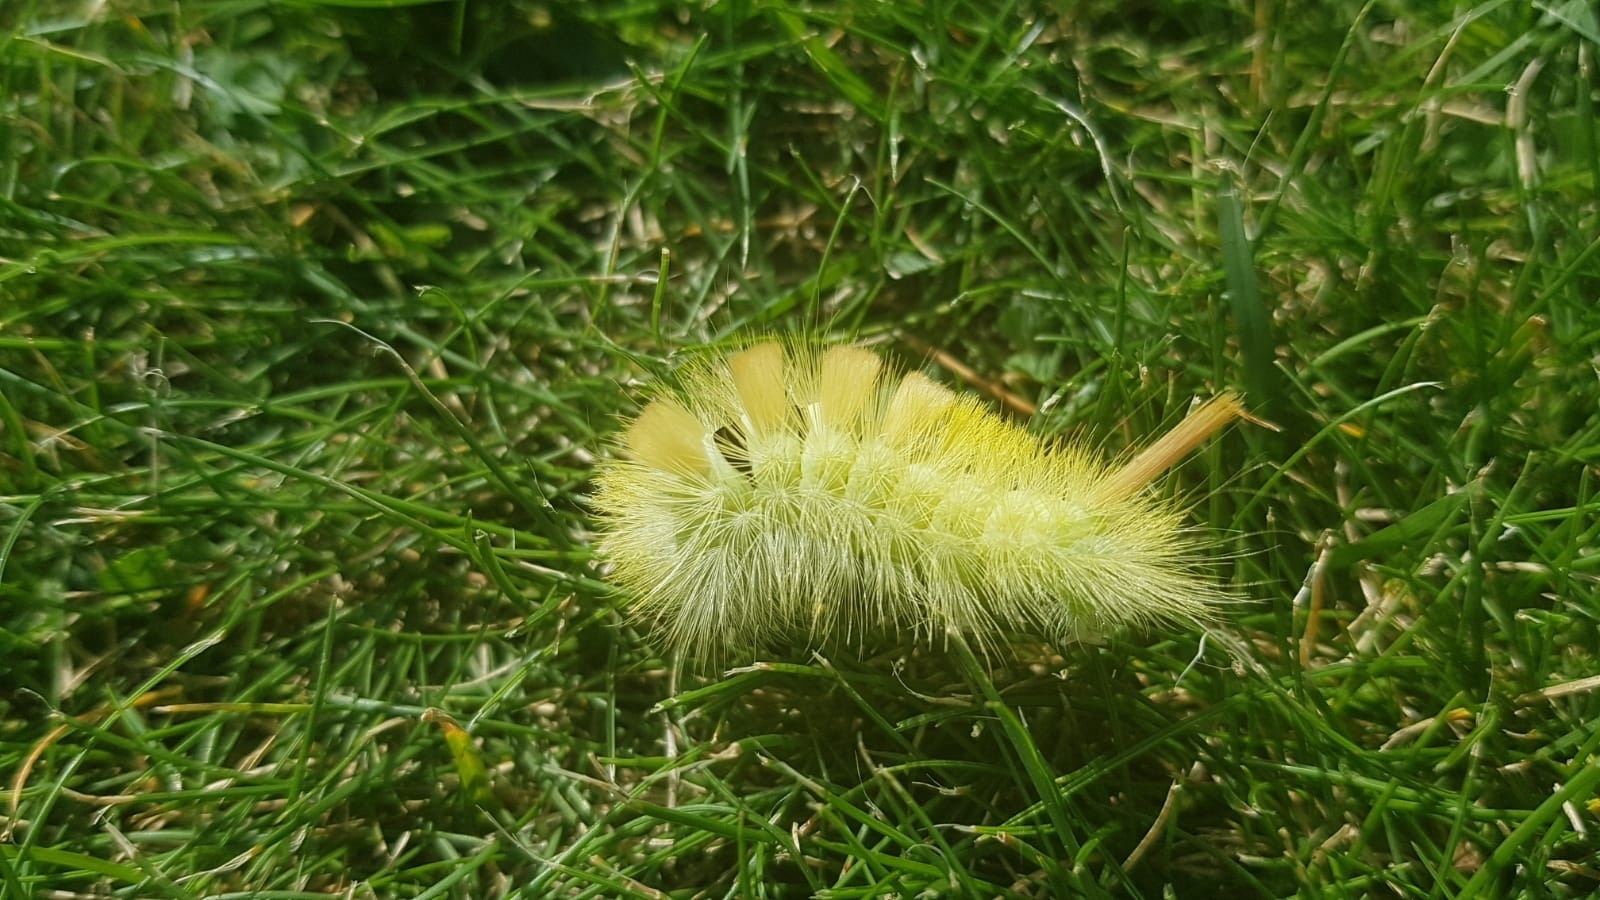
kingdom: Animalia
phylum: Arthropoda
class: Insecta
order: Lepidoptera
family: Erebidae
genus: Calliteara
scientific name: Calliteara pudibunda
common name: Pale tussock
